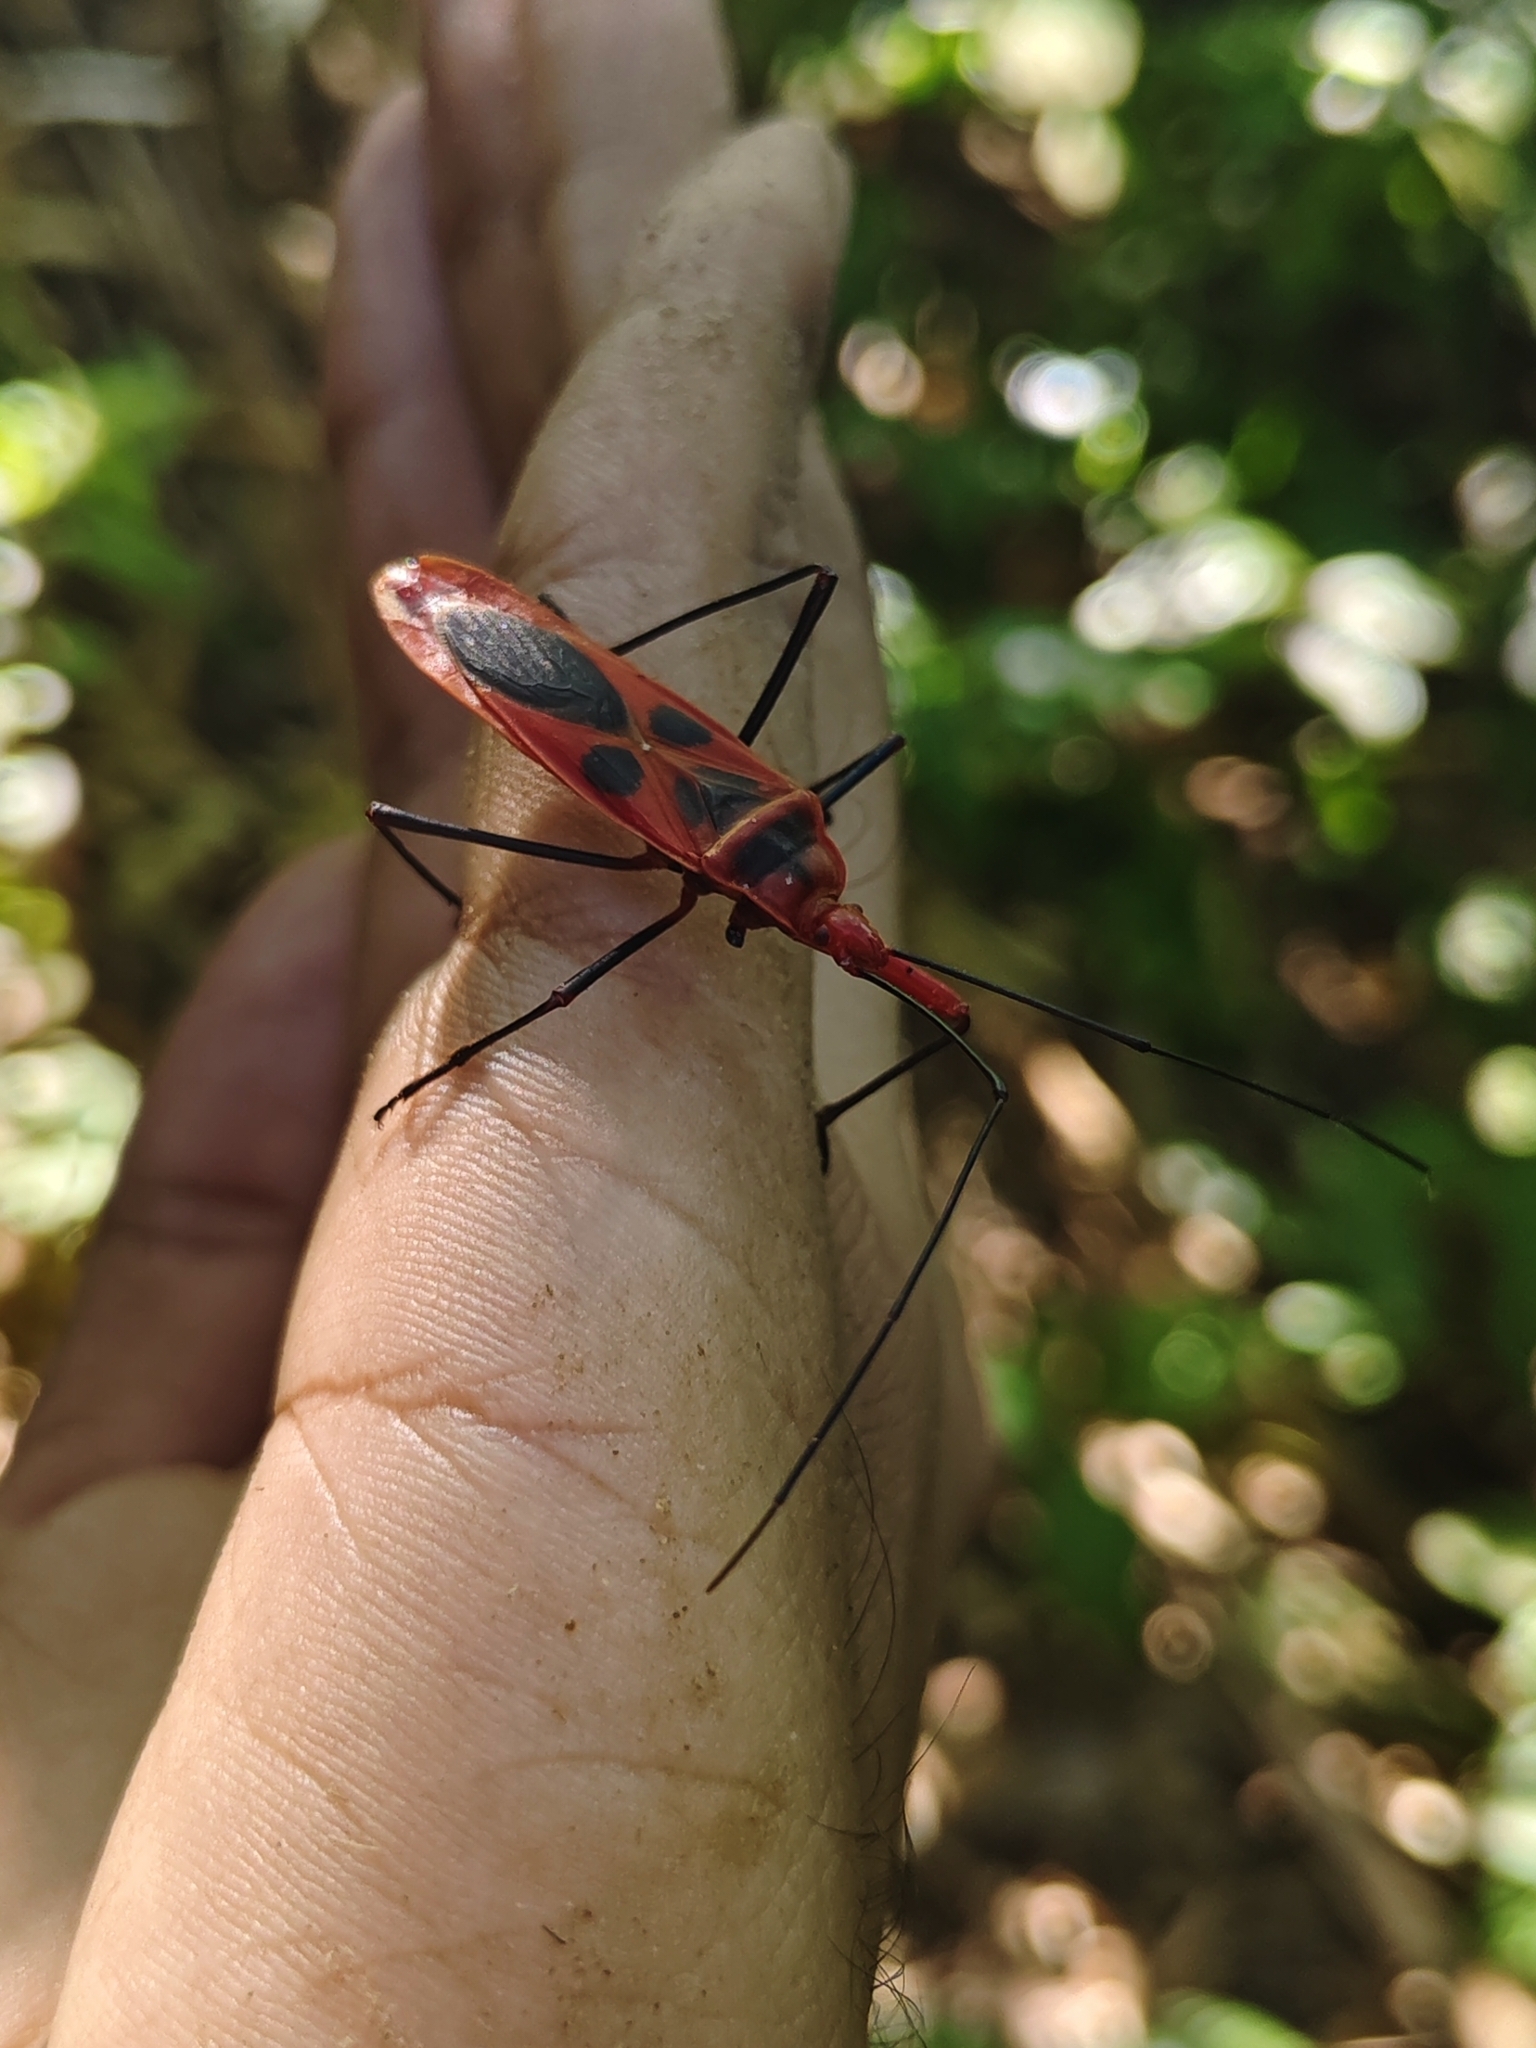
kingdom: Animalia
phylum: Arthropoda
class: Insecta
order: Hemiptera
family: Largidae
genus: Macrocheraia
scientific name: Macrocheraia grandis
